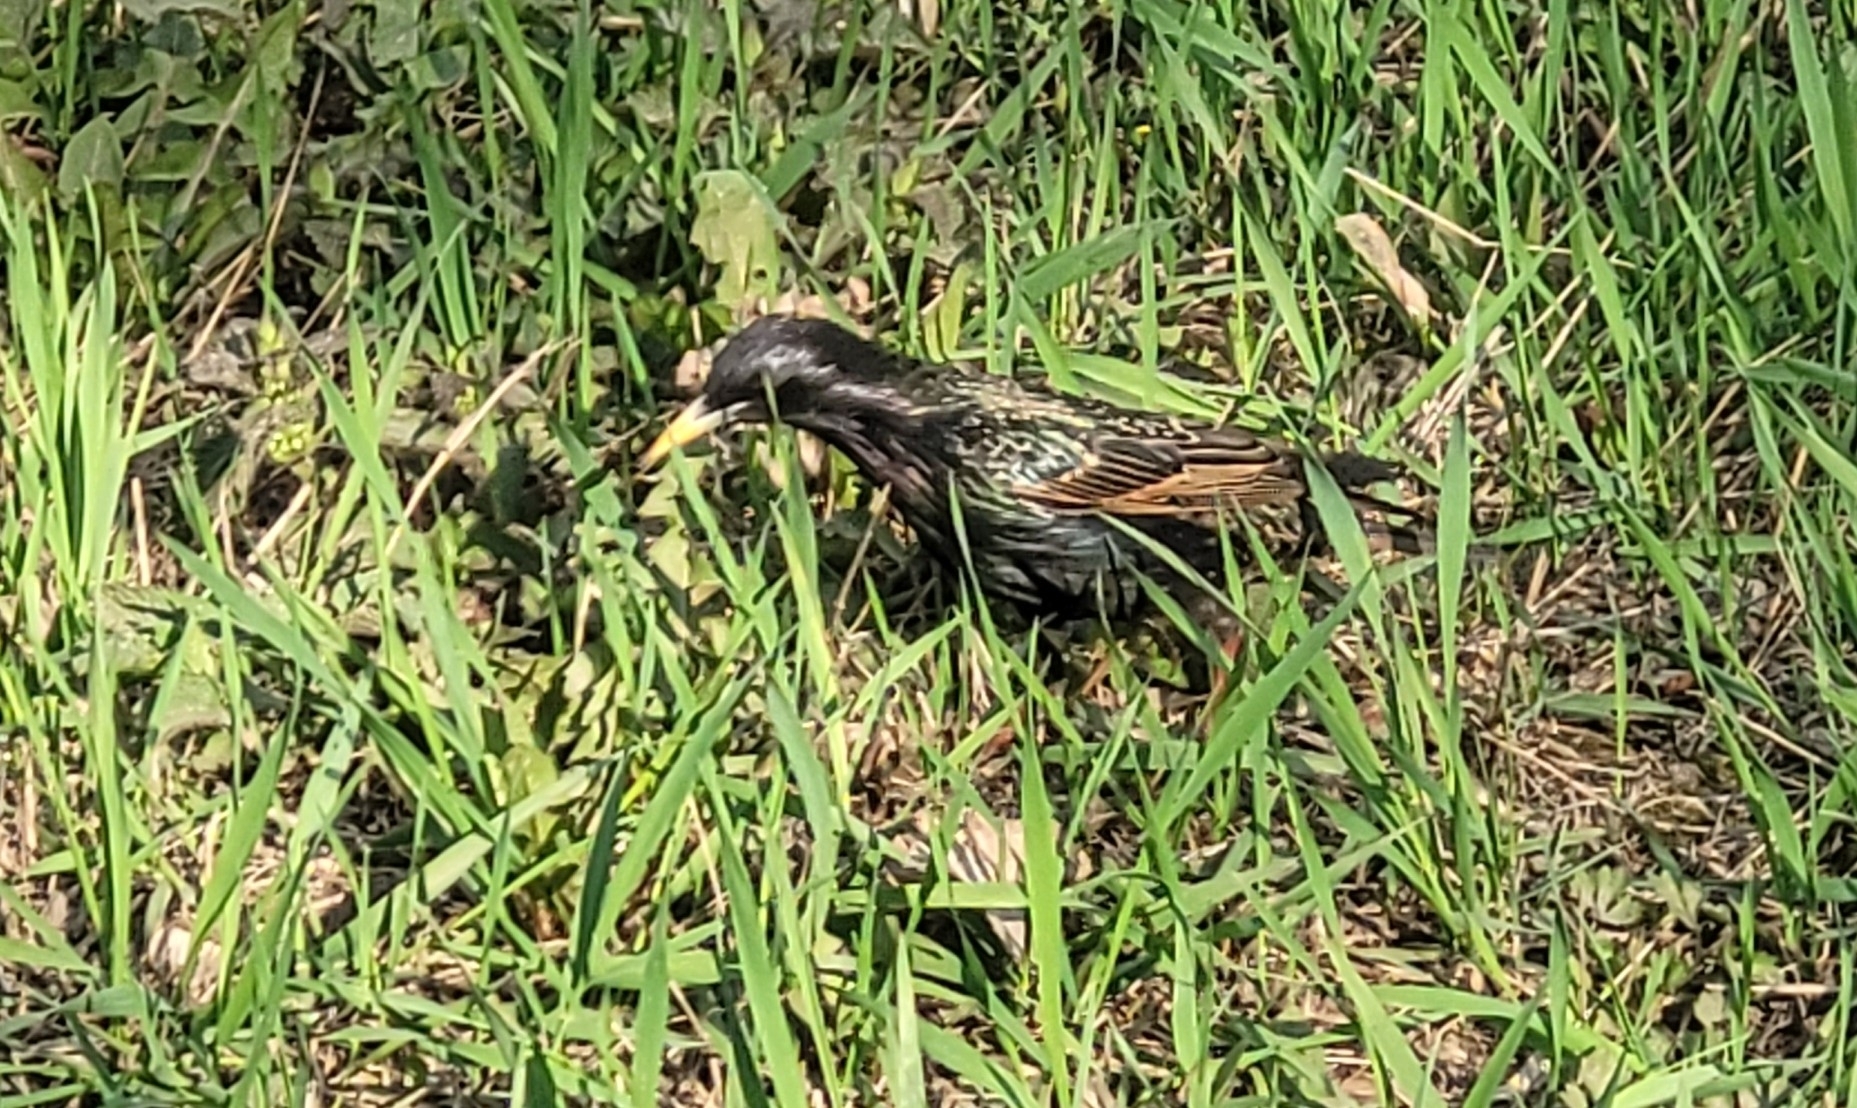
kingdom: Animalia
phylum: Chordata
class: Aves
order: Passeriformes
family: Sturnidae
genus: Sturnus
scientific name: Sturnus vulgaris
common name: Common starling
